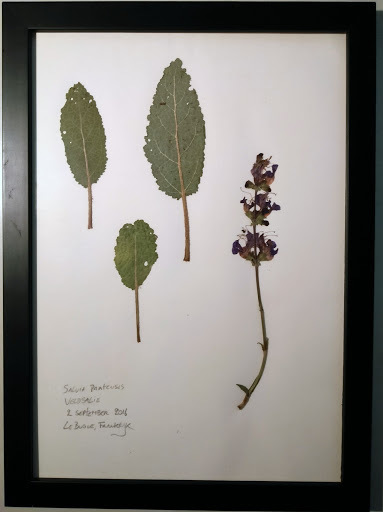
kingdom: Plantae
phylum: Tracheophyta
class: Magnoliopsida
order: Lamiales
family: Lamiaceae
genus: Salvia
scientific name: Salvia pratensis
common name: Meadow sage
